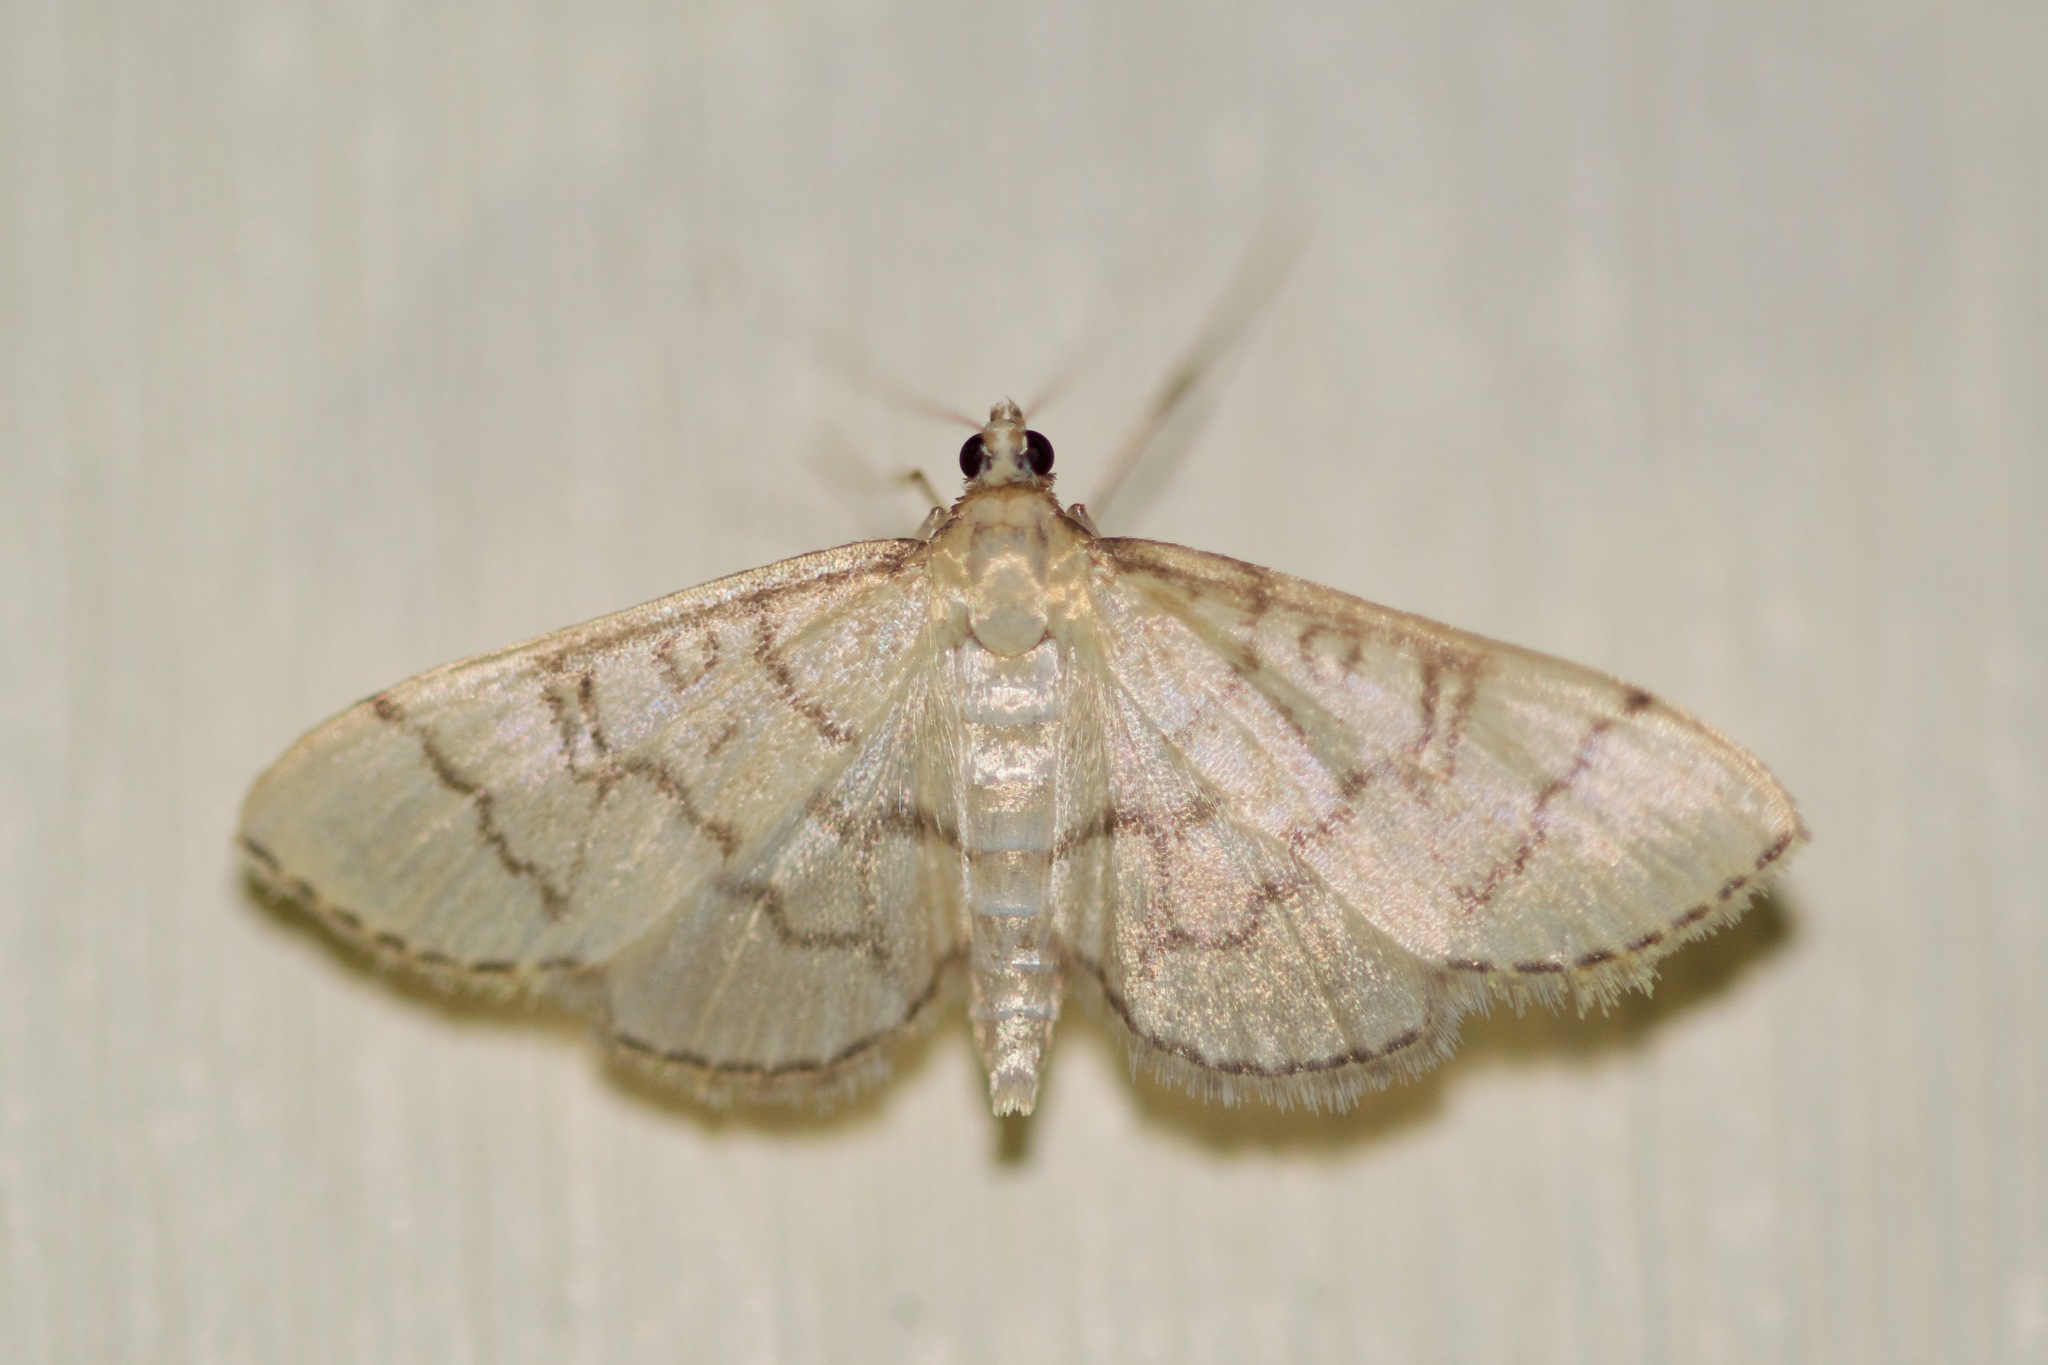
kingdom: Animalia
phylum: Arthropoda
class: Insecta
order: Lepidoptera
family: Crambidae
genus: Lamprosema
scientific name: Lamprosema Blepharomastix ranalis
